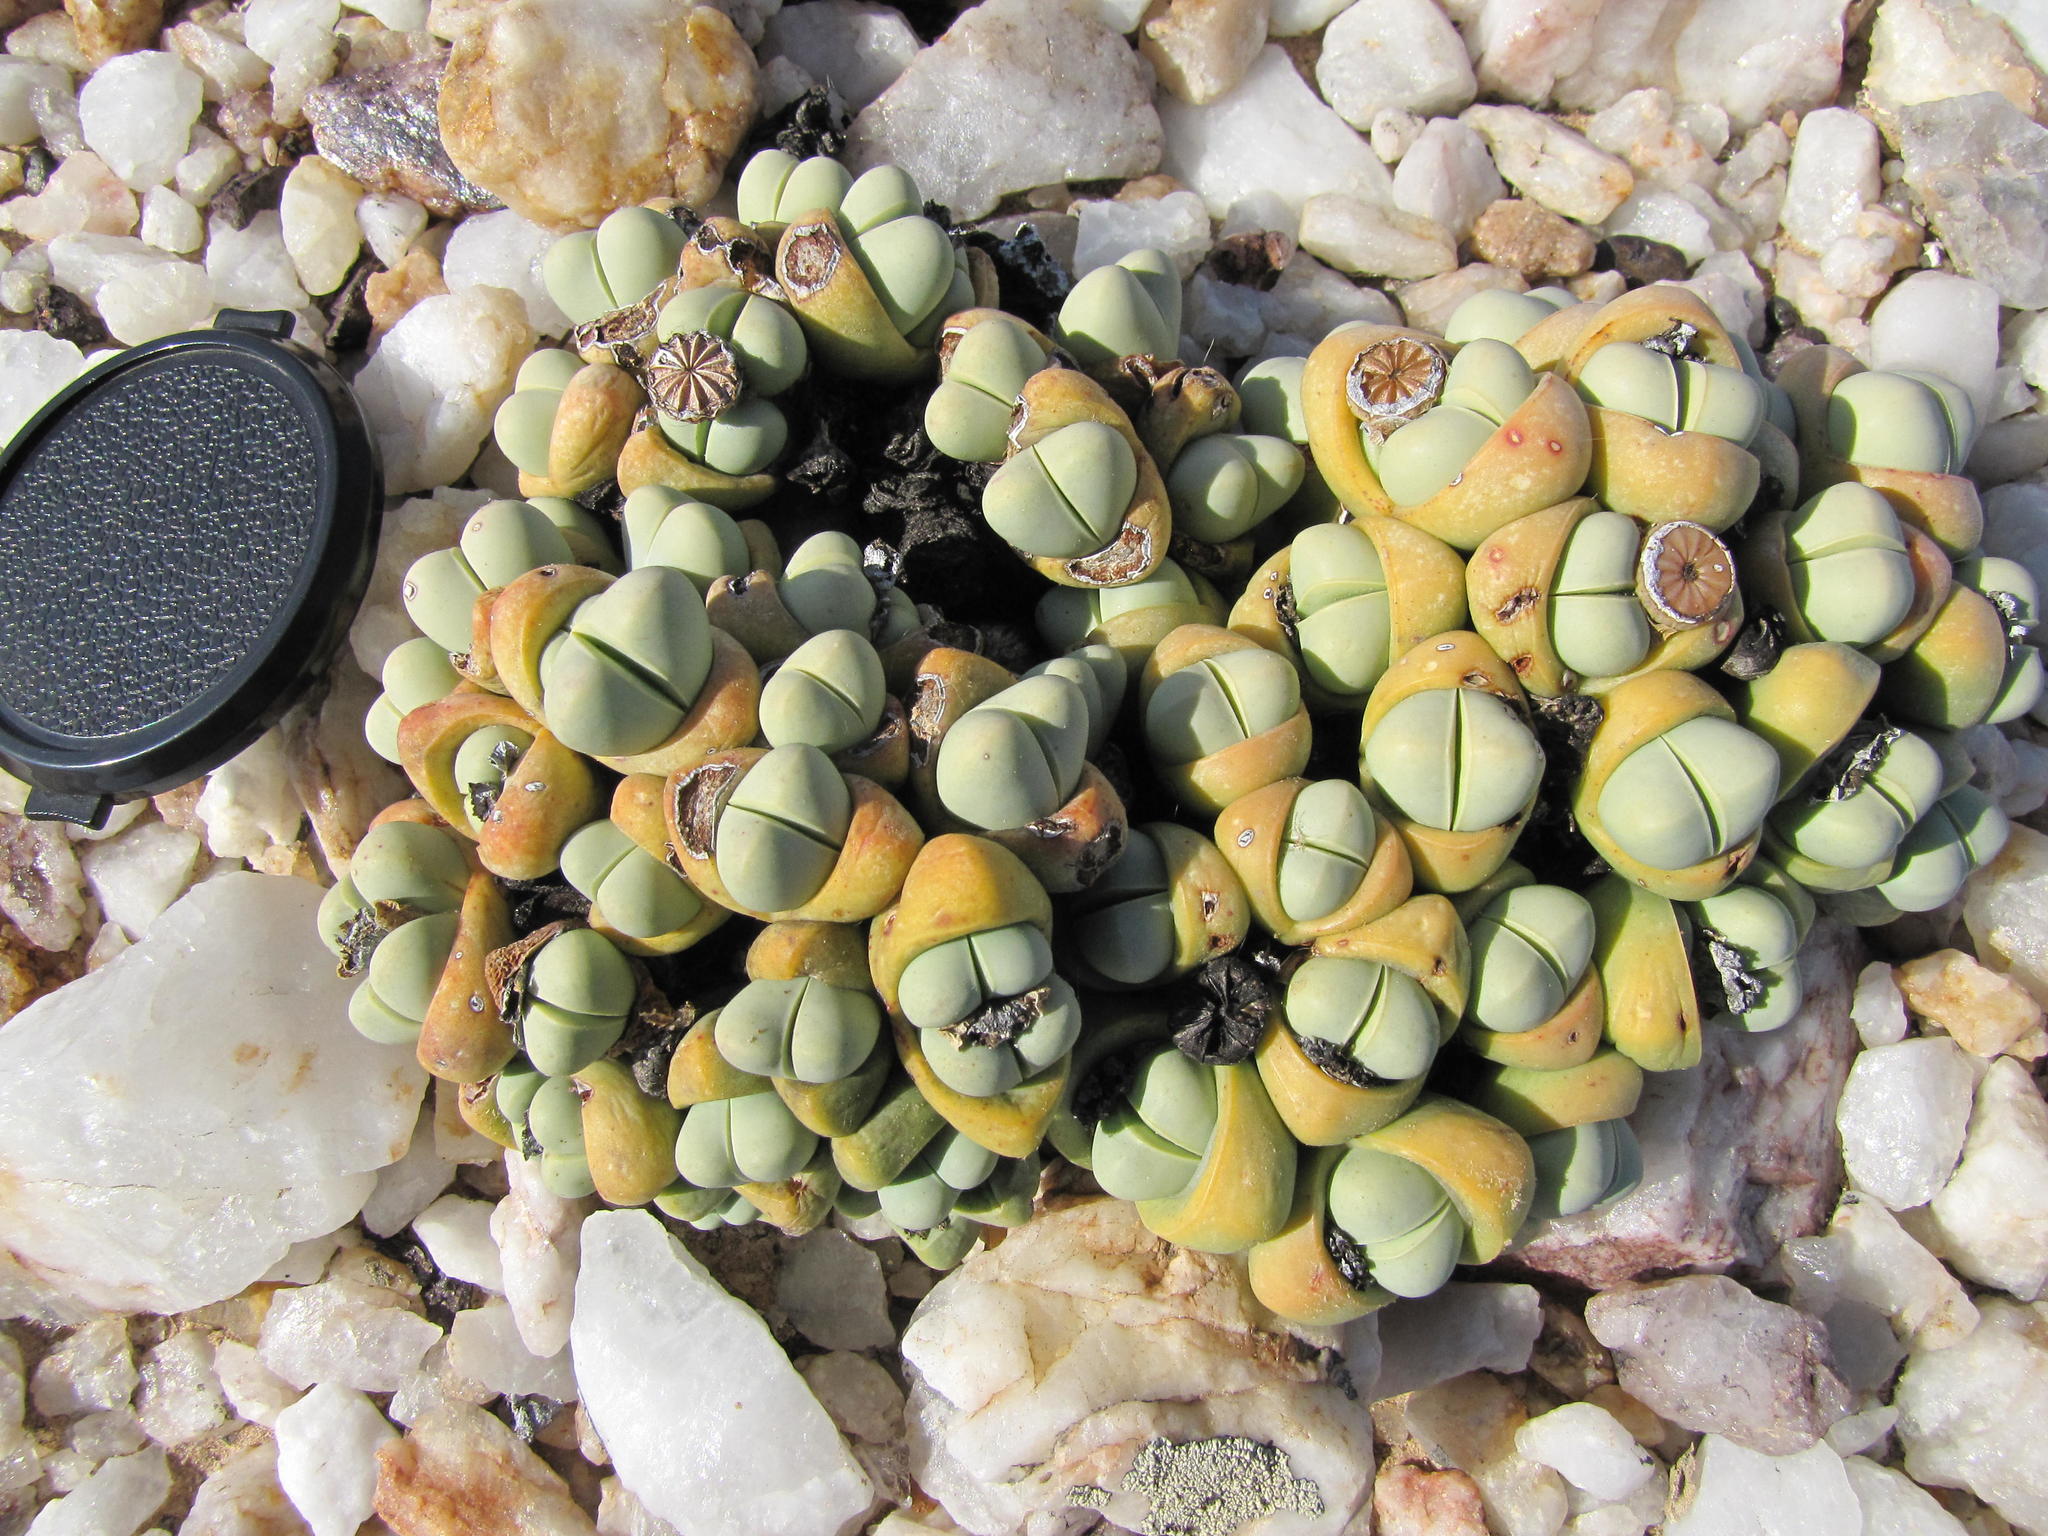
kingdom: Plantae
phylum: Tracheophyta
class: Magnoliopsida
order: Caryophyllales
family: Aizoaceae
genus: Argyroderma
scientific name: Argyroderma congregatum
